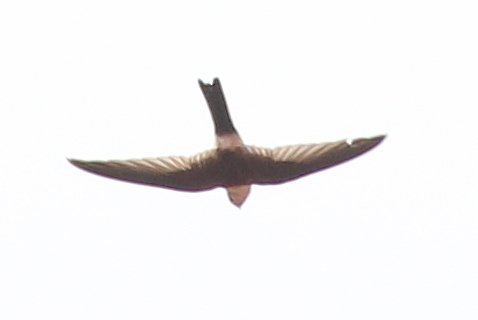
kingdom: Animalia
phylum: Chordata
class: Aves
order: Apodiformes
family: Apodidae
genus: Aeronautes
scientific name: Aeronautes andecolus
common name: Andean swift
